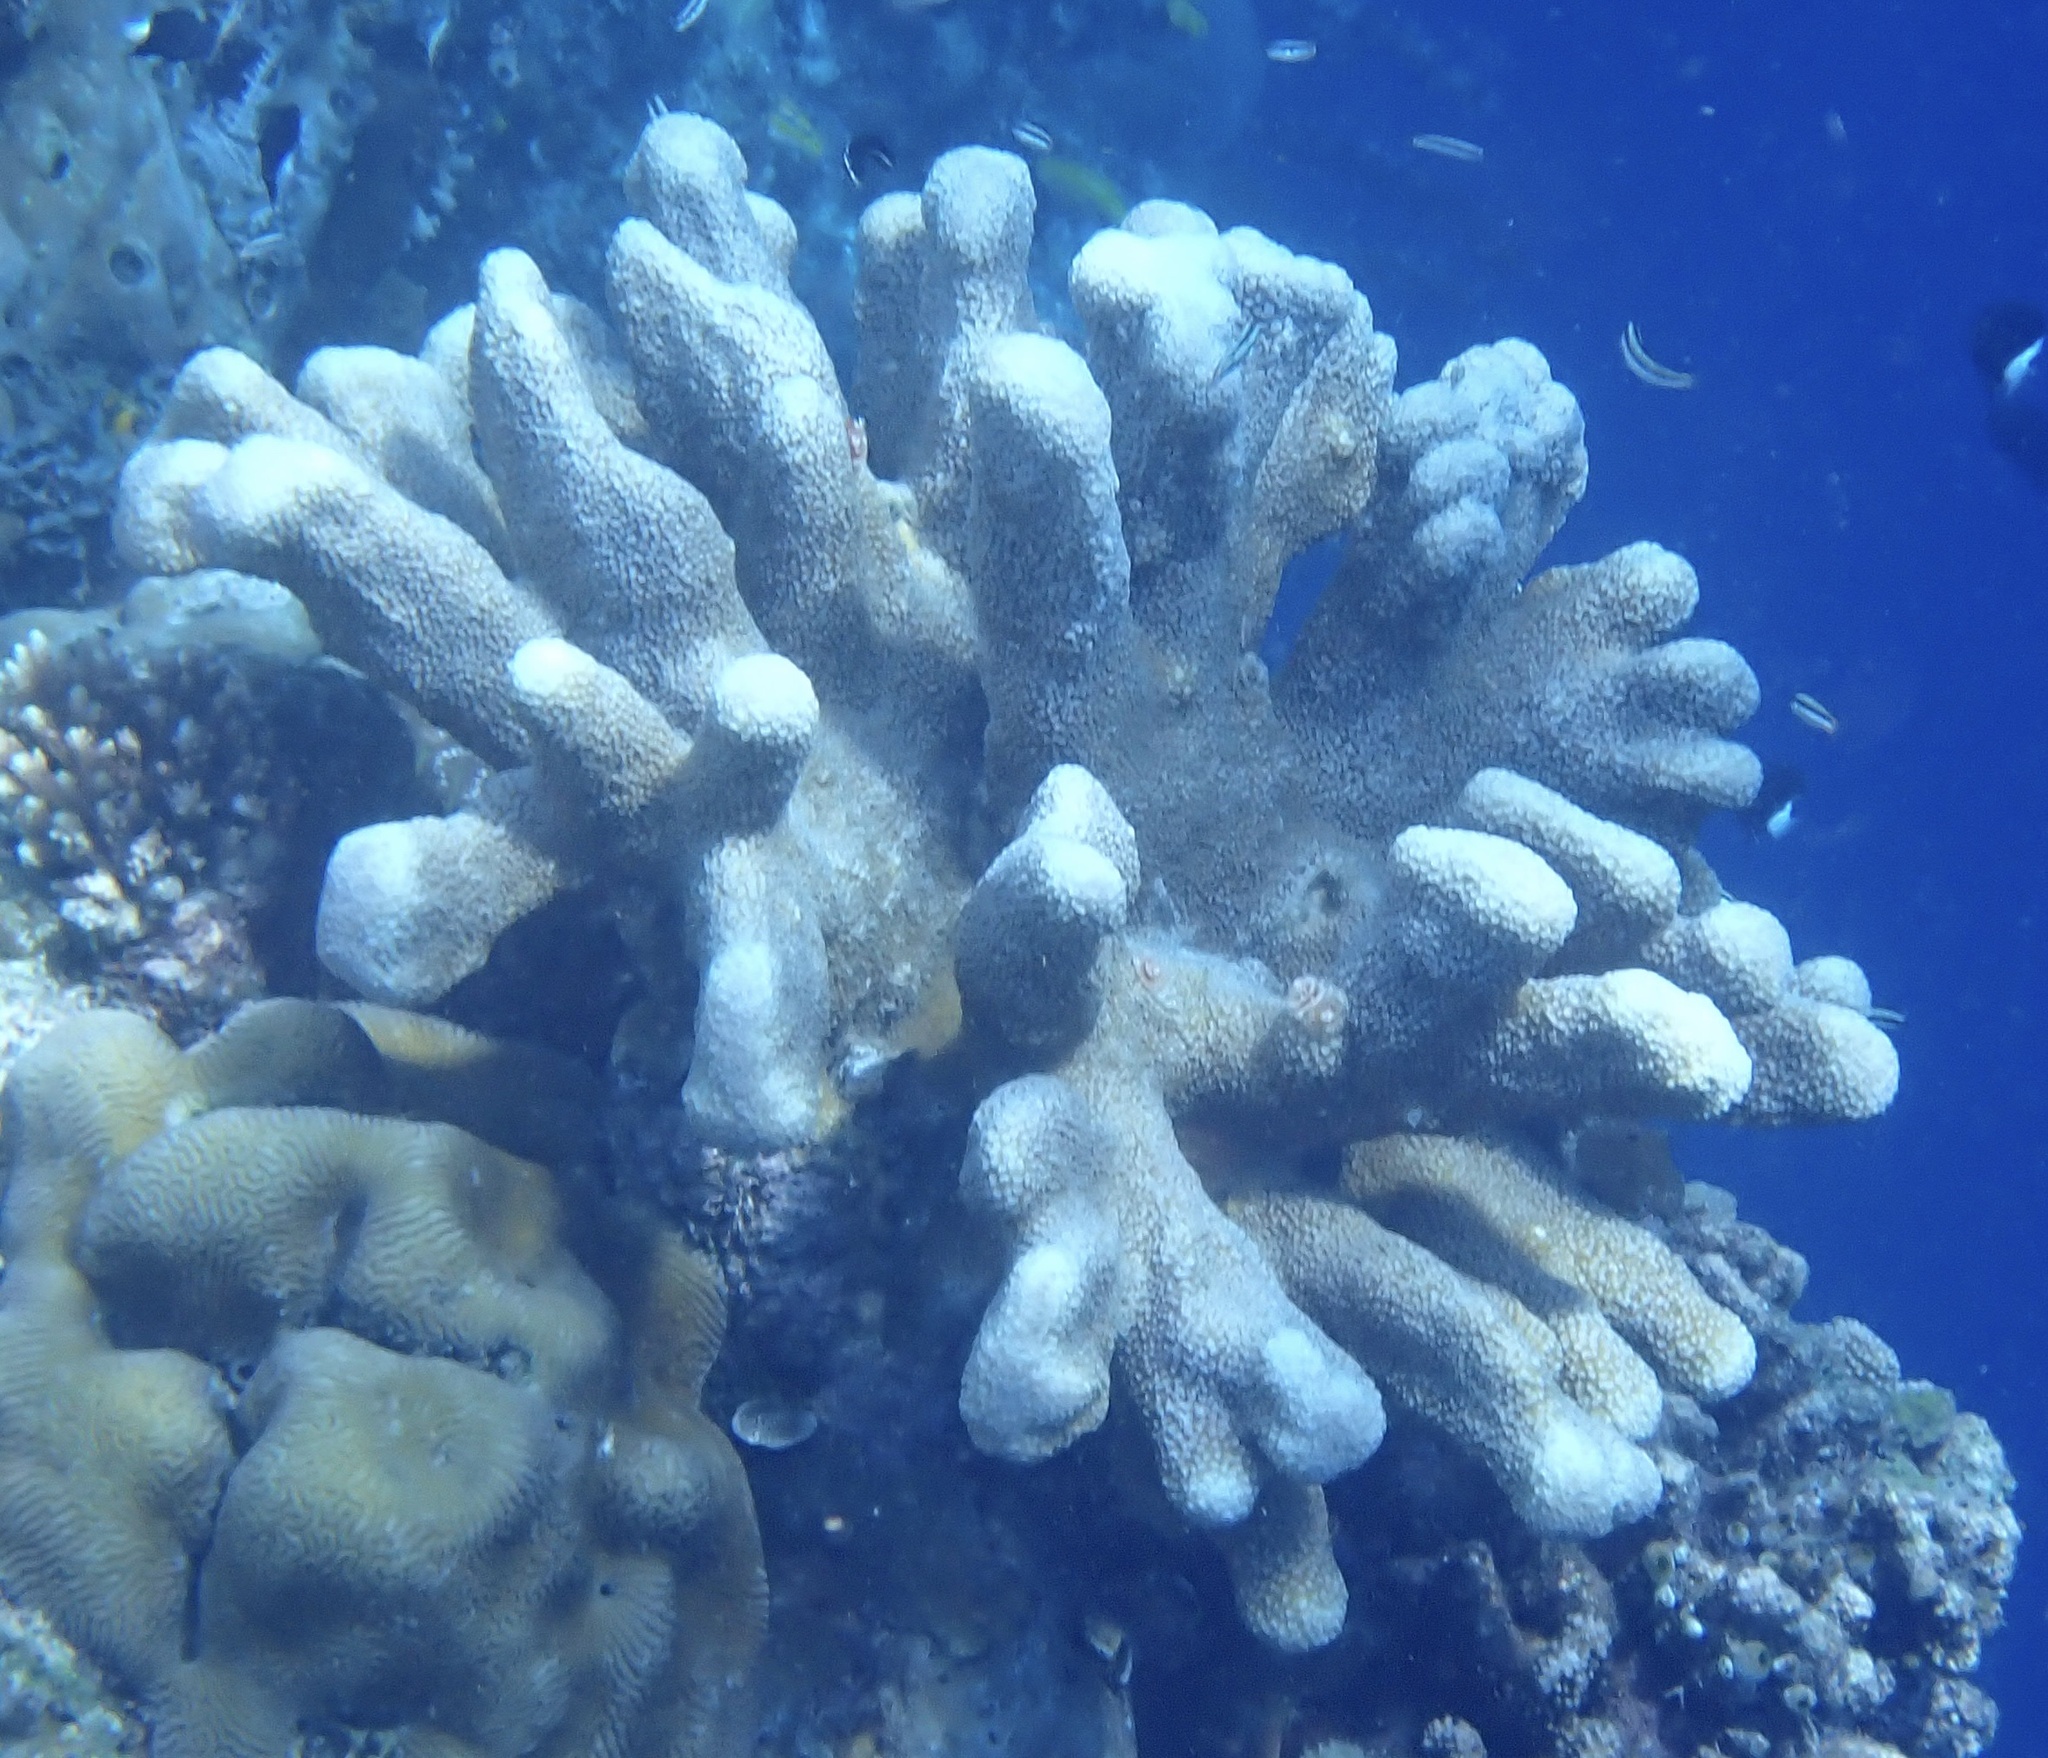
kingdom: Animalia
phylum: Cnidaria
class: Anthozoa
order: Scleractinia
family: Acroporidae
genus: Isopora
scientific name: Isopora palifera
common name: Catch bowl coral
